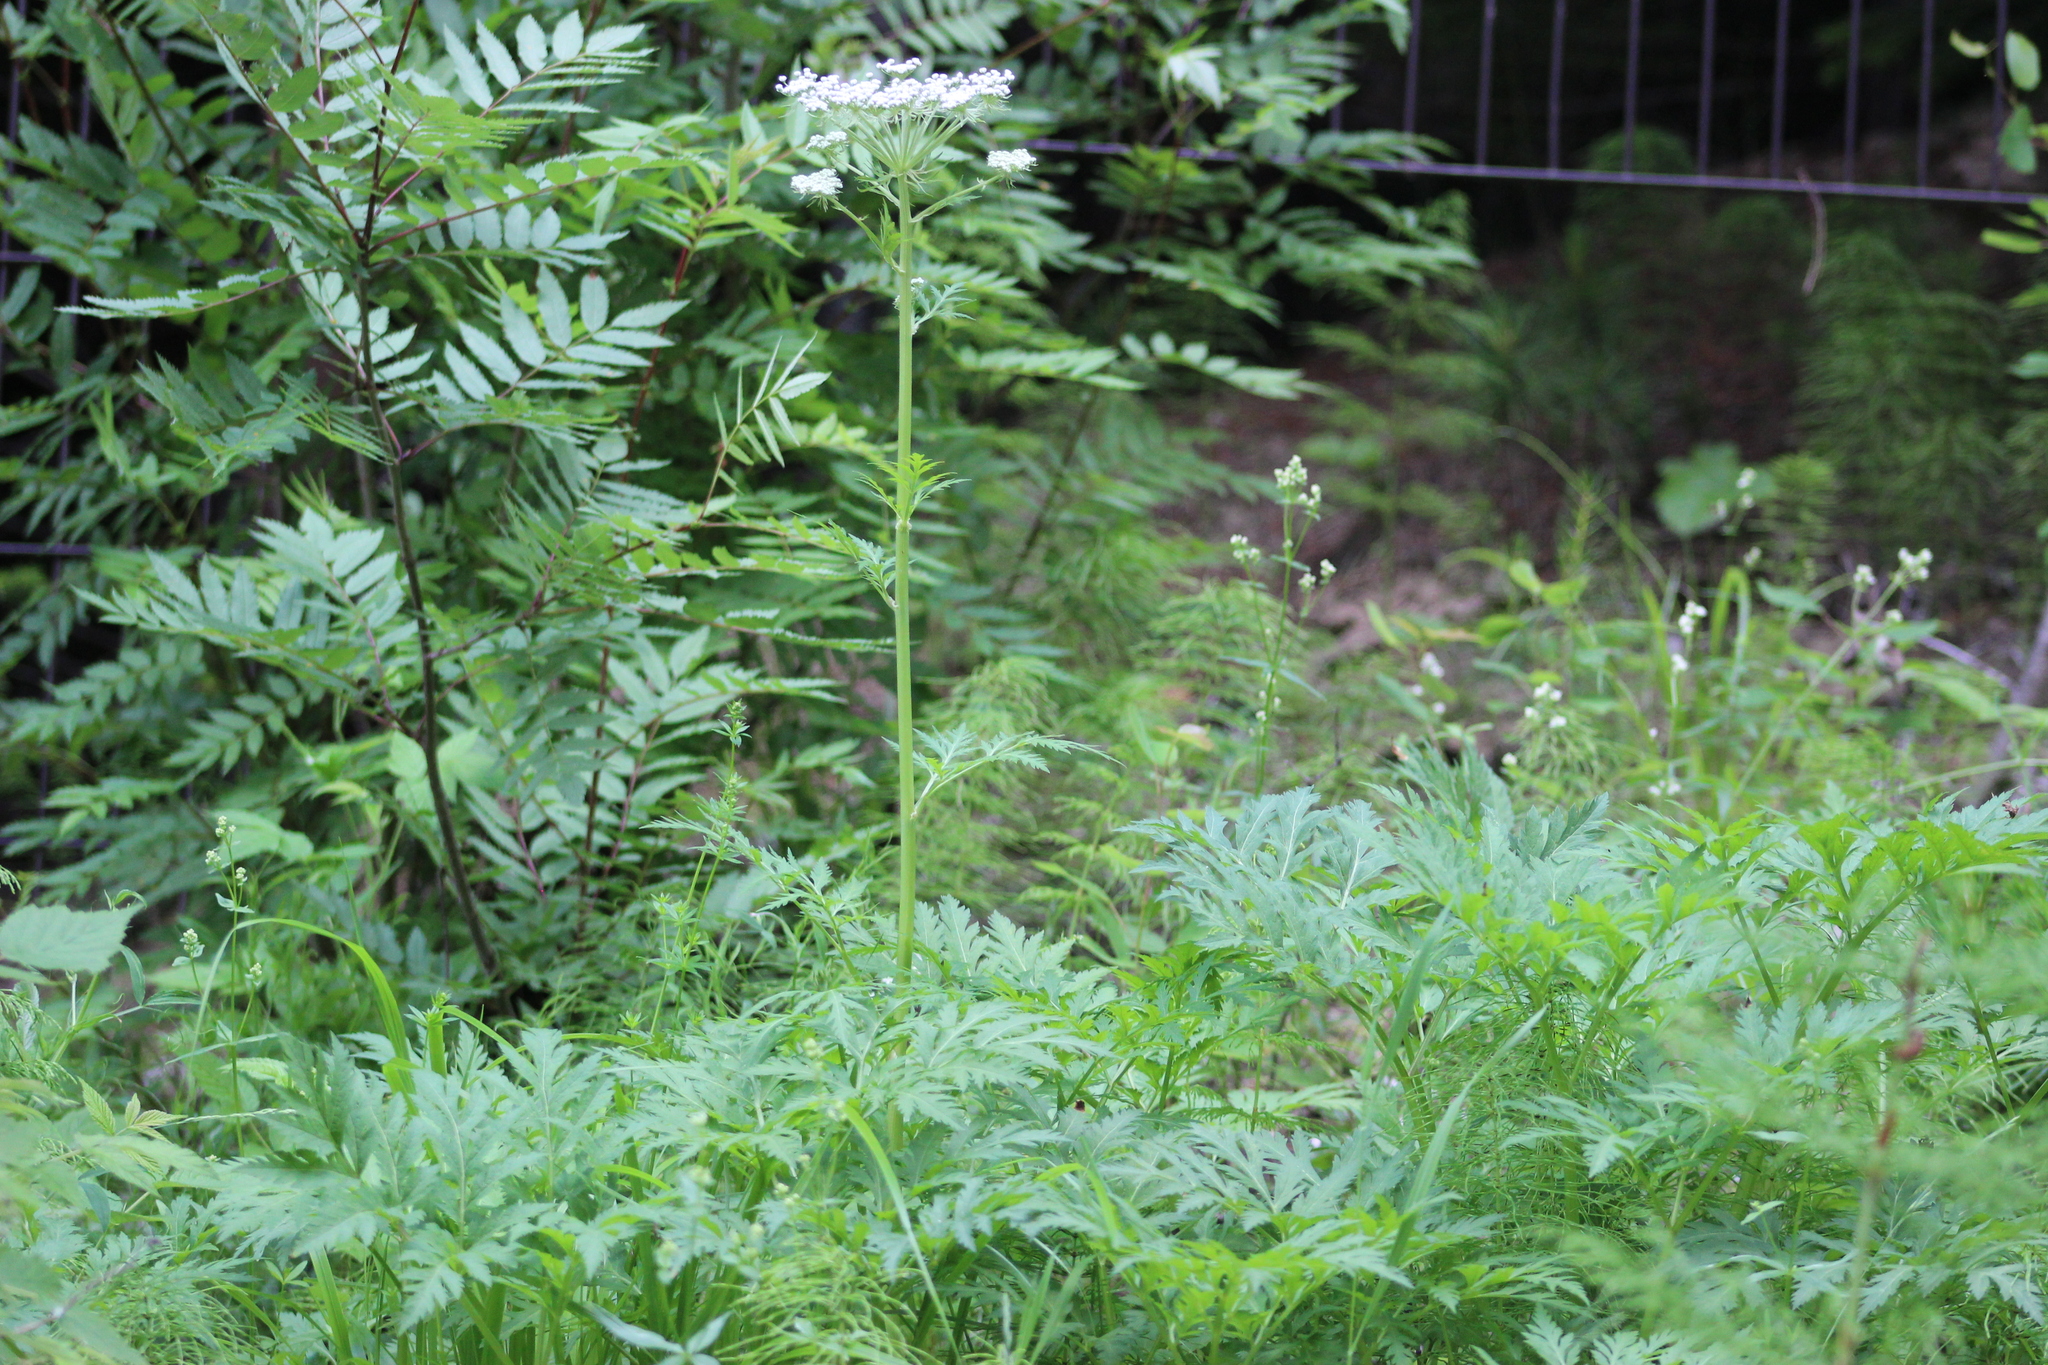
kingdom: Plantae
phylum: Tracheophyta
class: Magnoliopsida
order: Apiales
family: Apiaceae
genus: Pleurospermum
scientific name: Pleurospermum uralense
